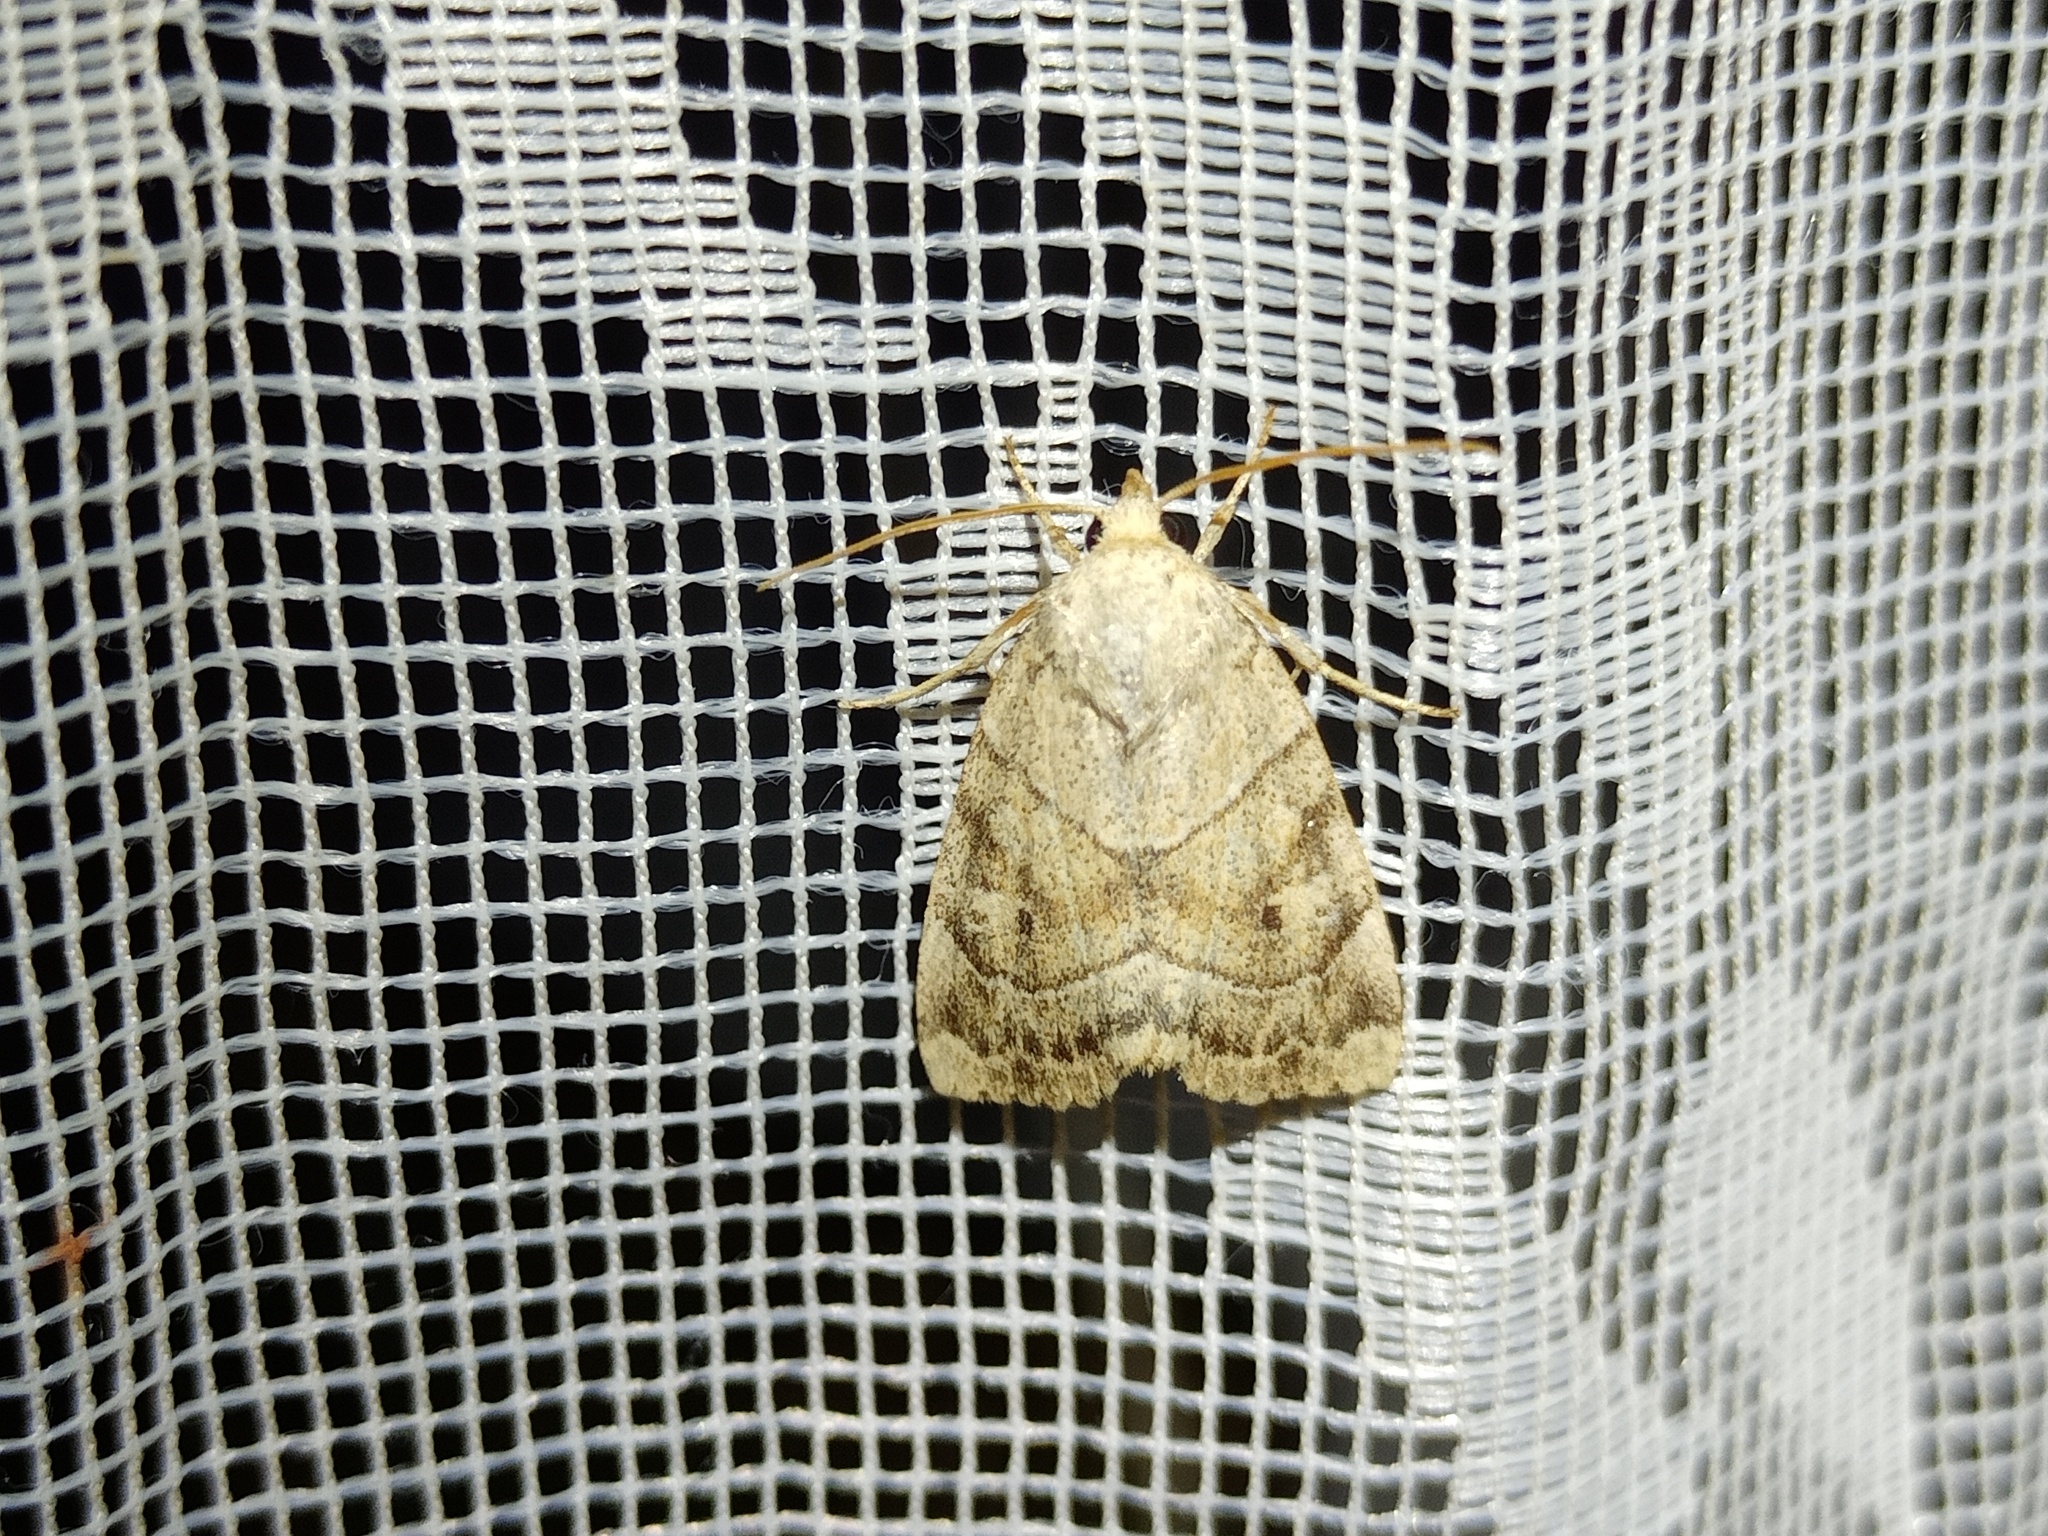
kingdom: Animalia
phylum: Arthropoda
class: Insecta
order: Lepidoptera
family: Noctuidae
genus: Cosmia
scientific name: Cosmia trapezina
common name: Dun-bar
